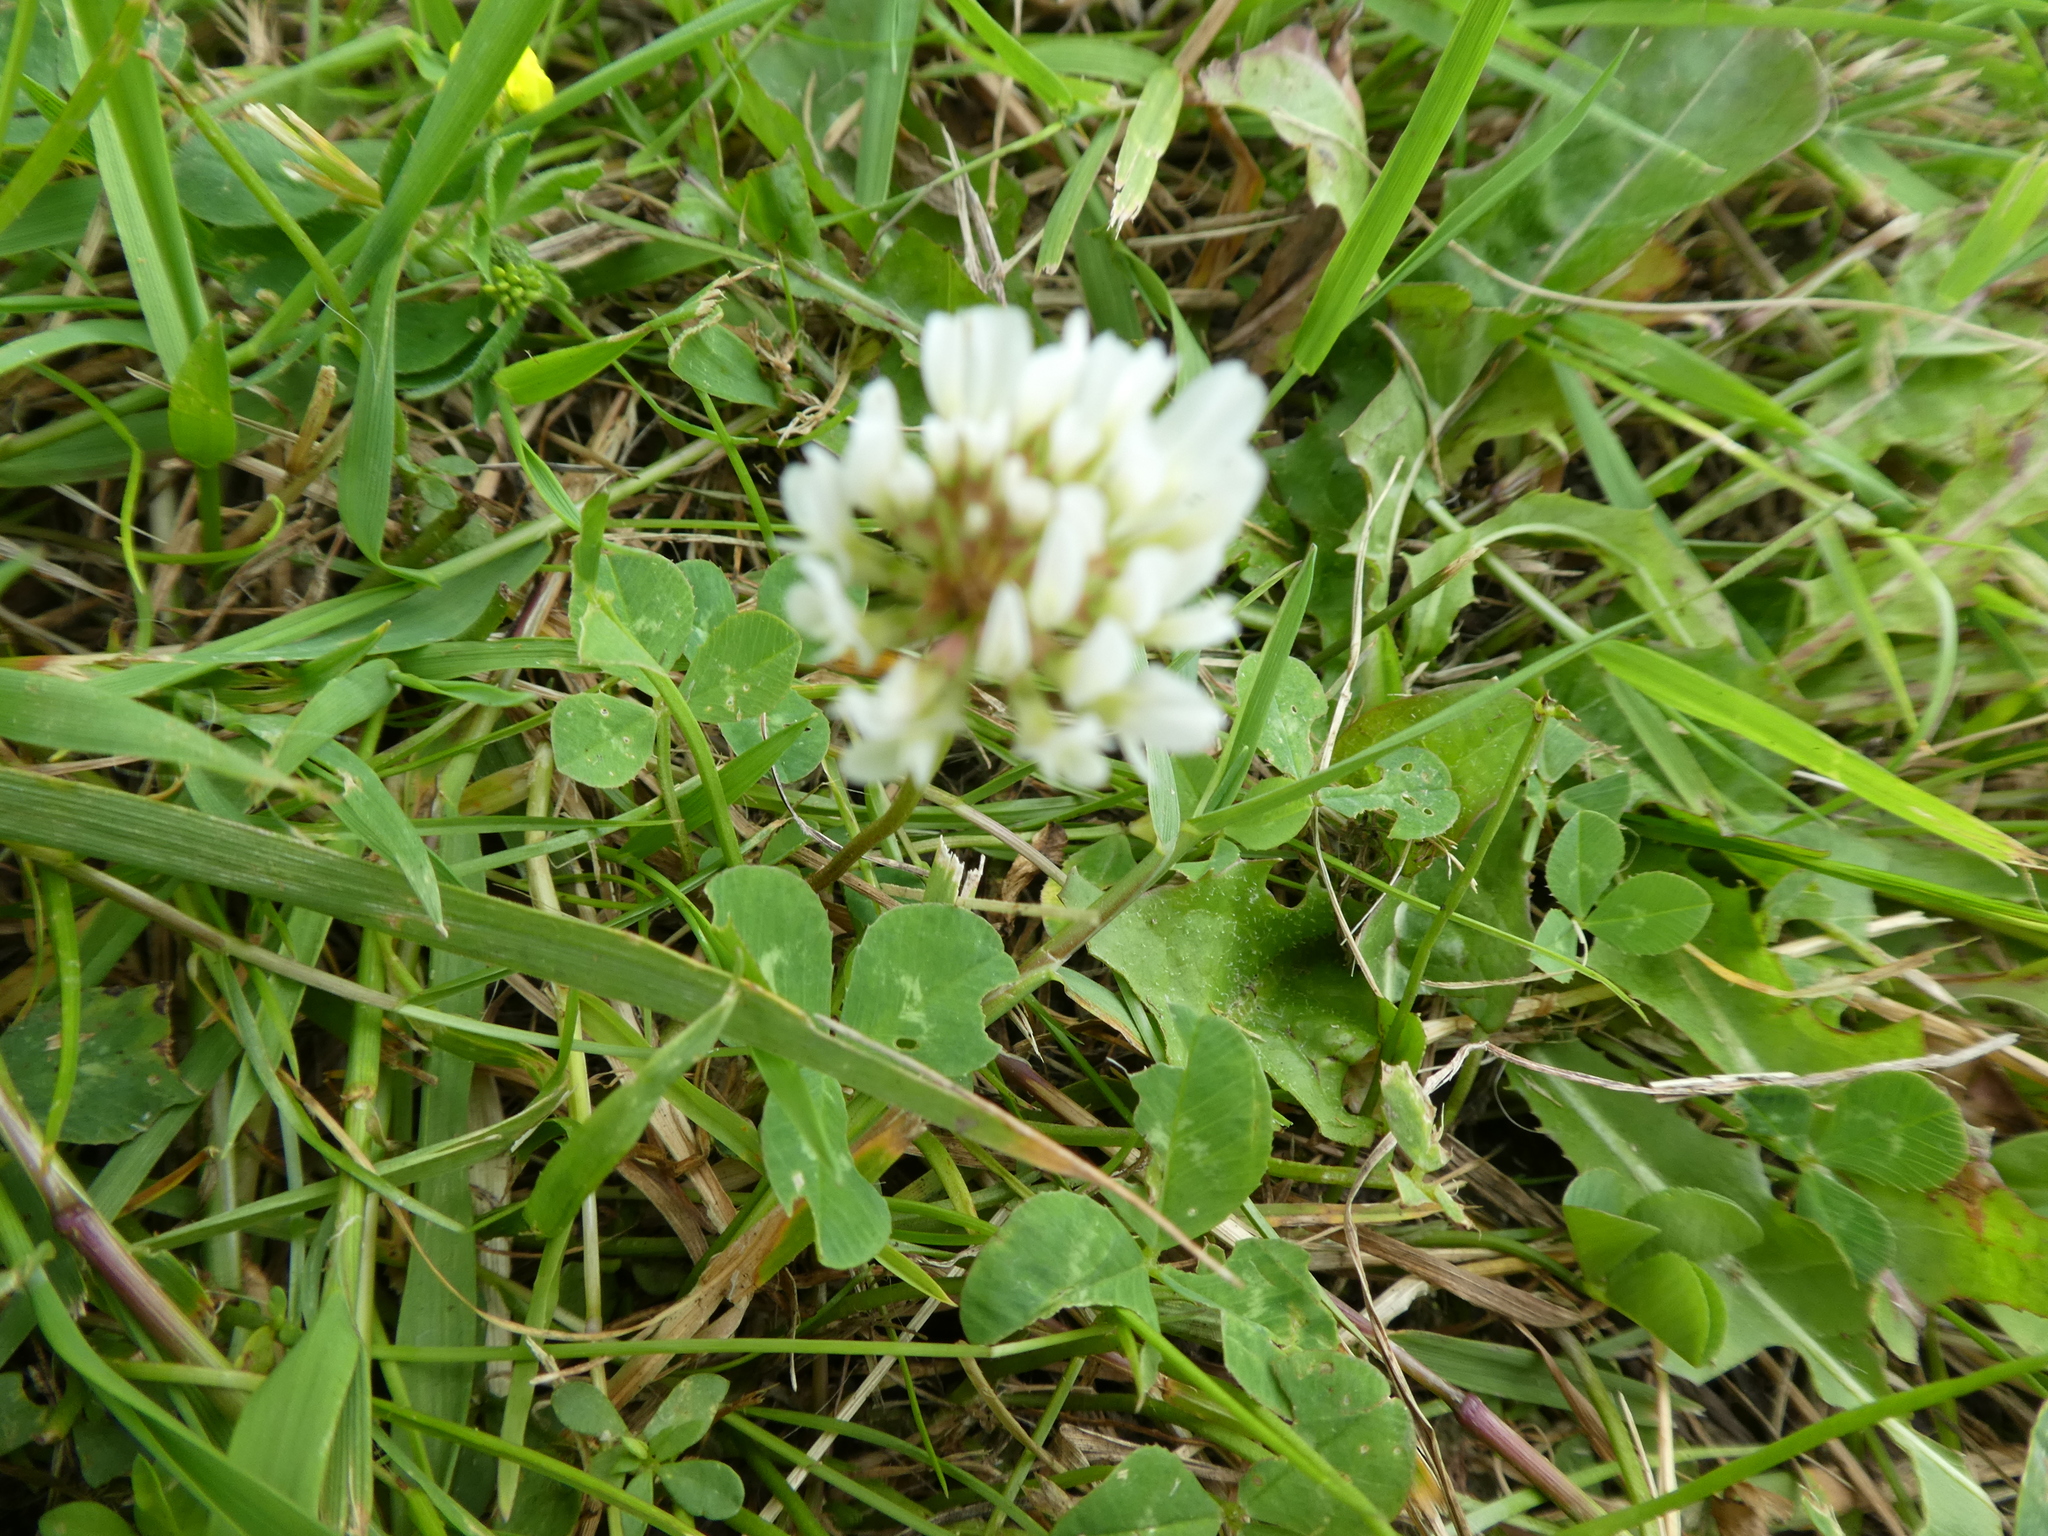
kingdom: Plantae
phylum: Tracheophyta
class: Magnoliopsida
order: Fabales
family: Fabaceae
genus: Trifolium
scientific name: Trifolium repens
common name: White clover
